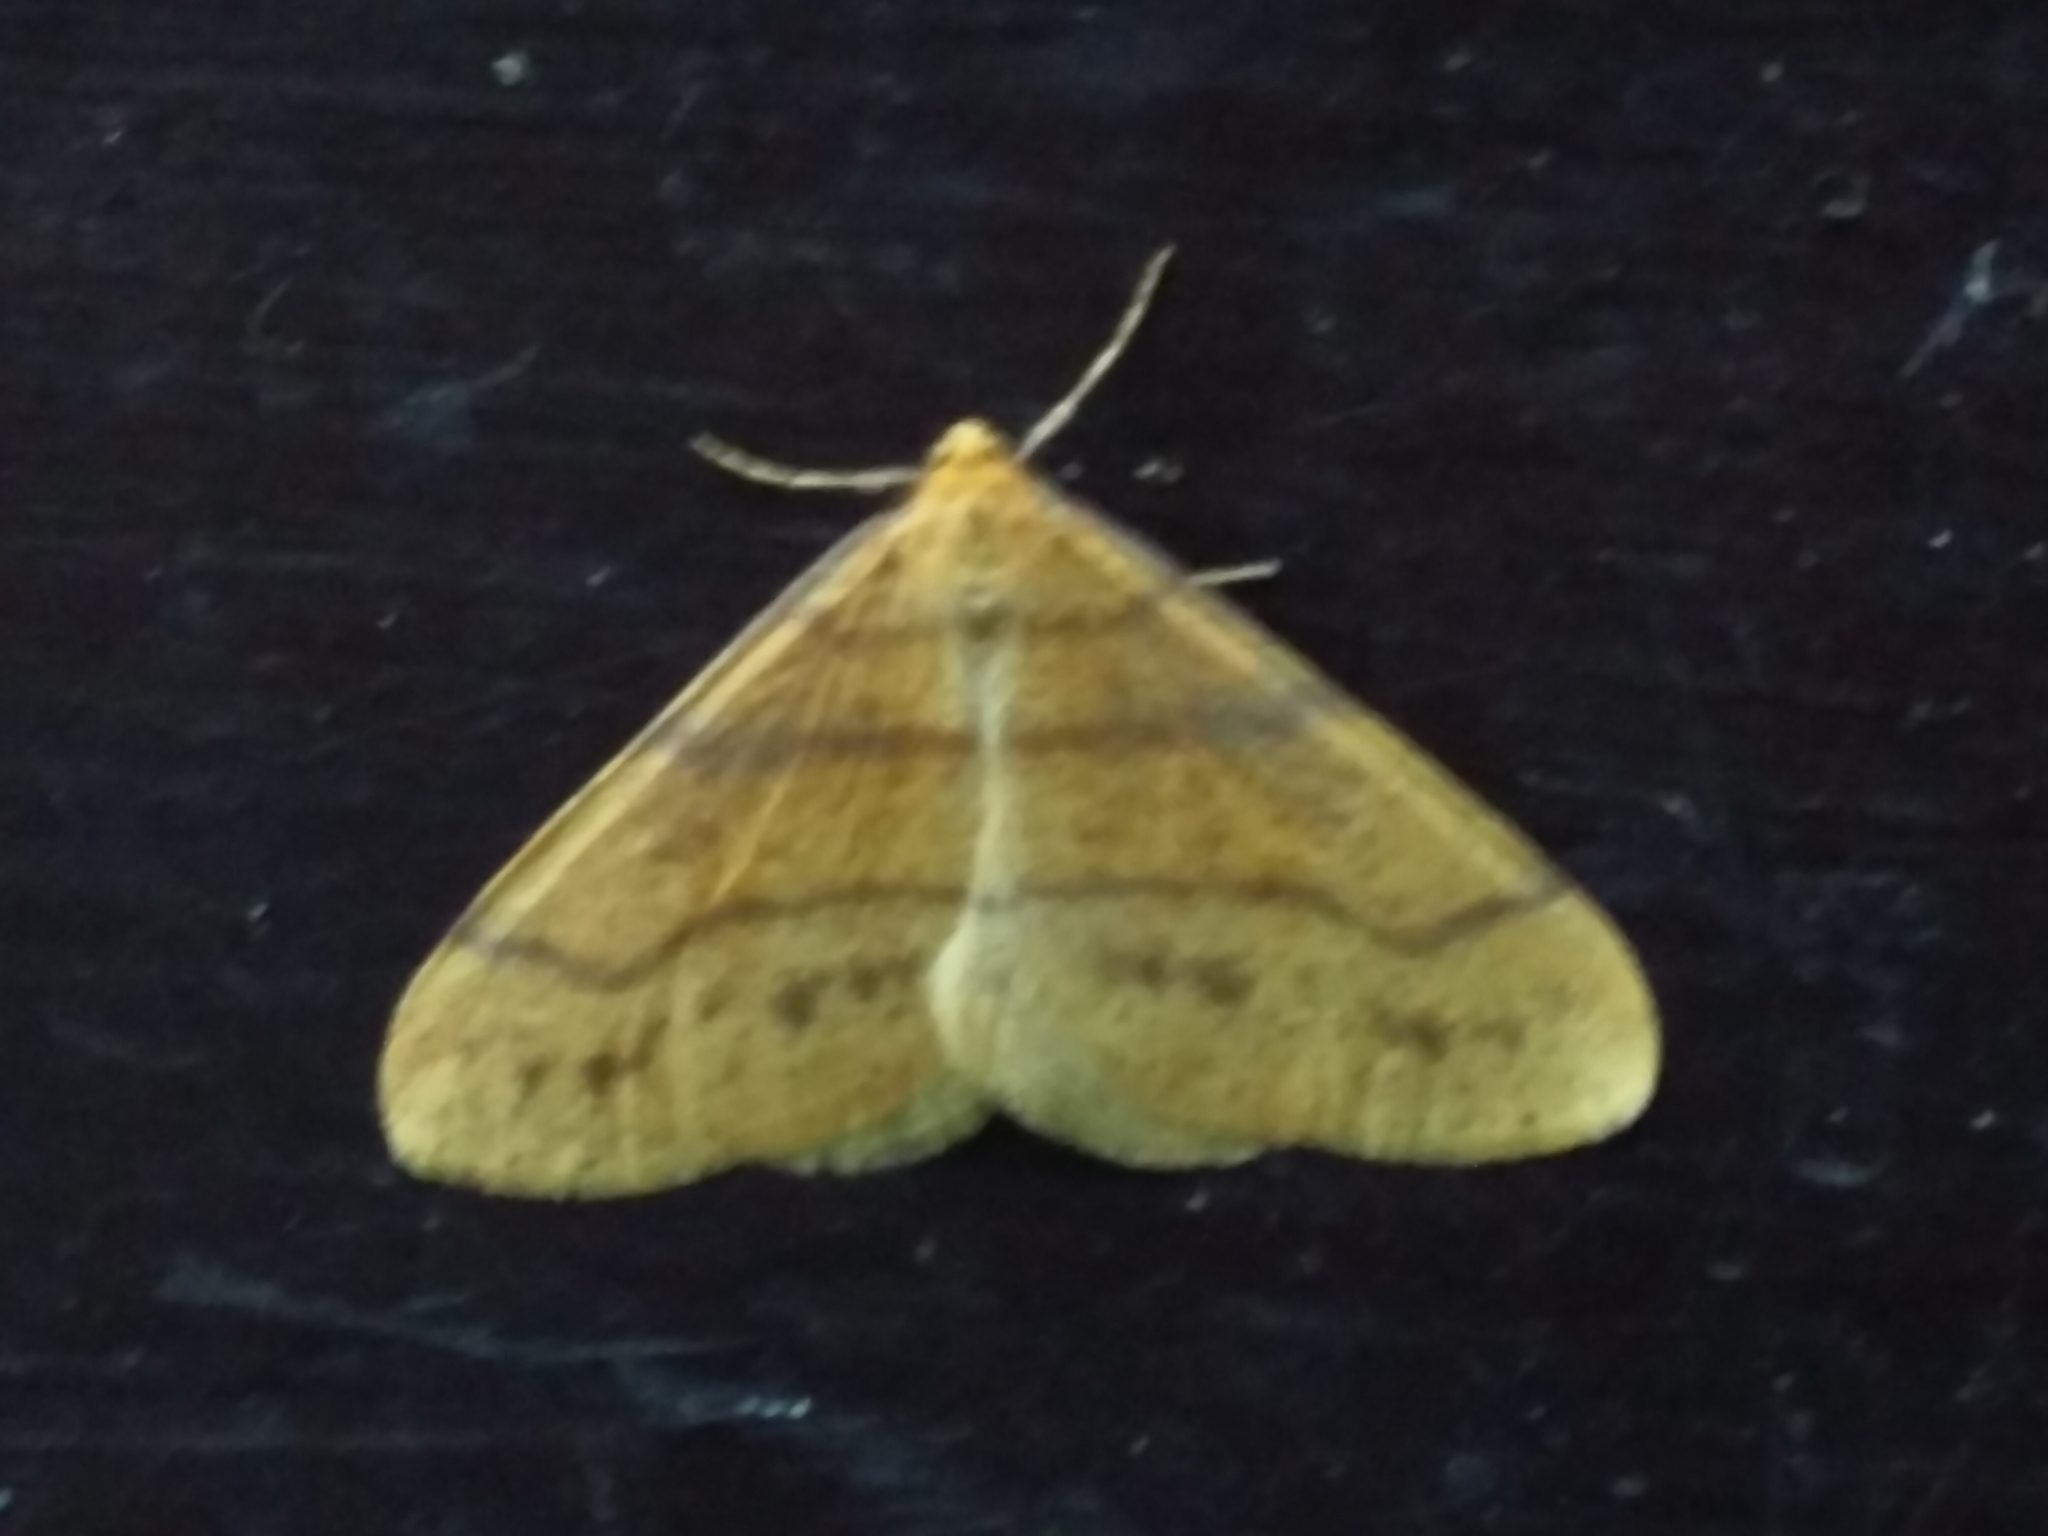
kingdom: Animalia
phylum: Arthropoda
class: Insecta
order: Lepidoptera
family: Geometridae
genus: Agriopis
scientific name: Agriopis aurantiaria
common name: Scarce umber
